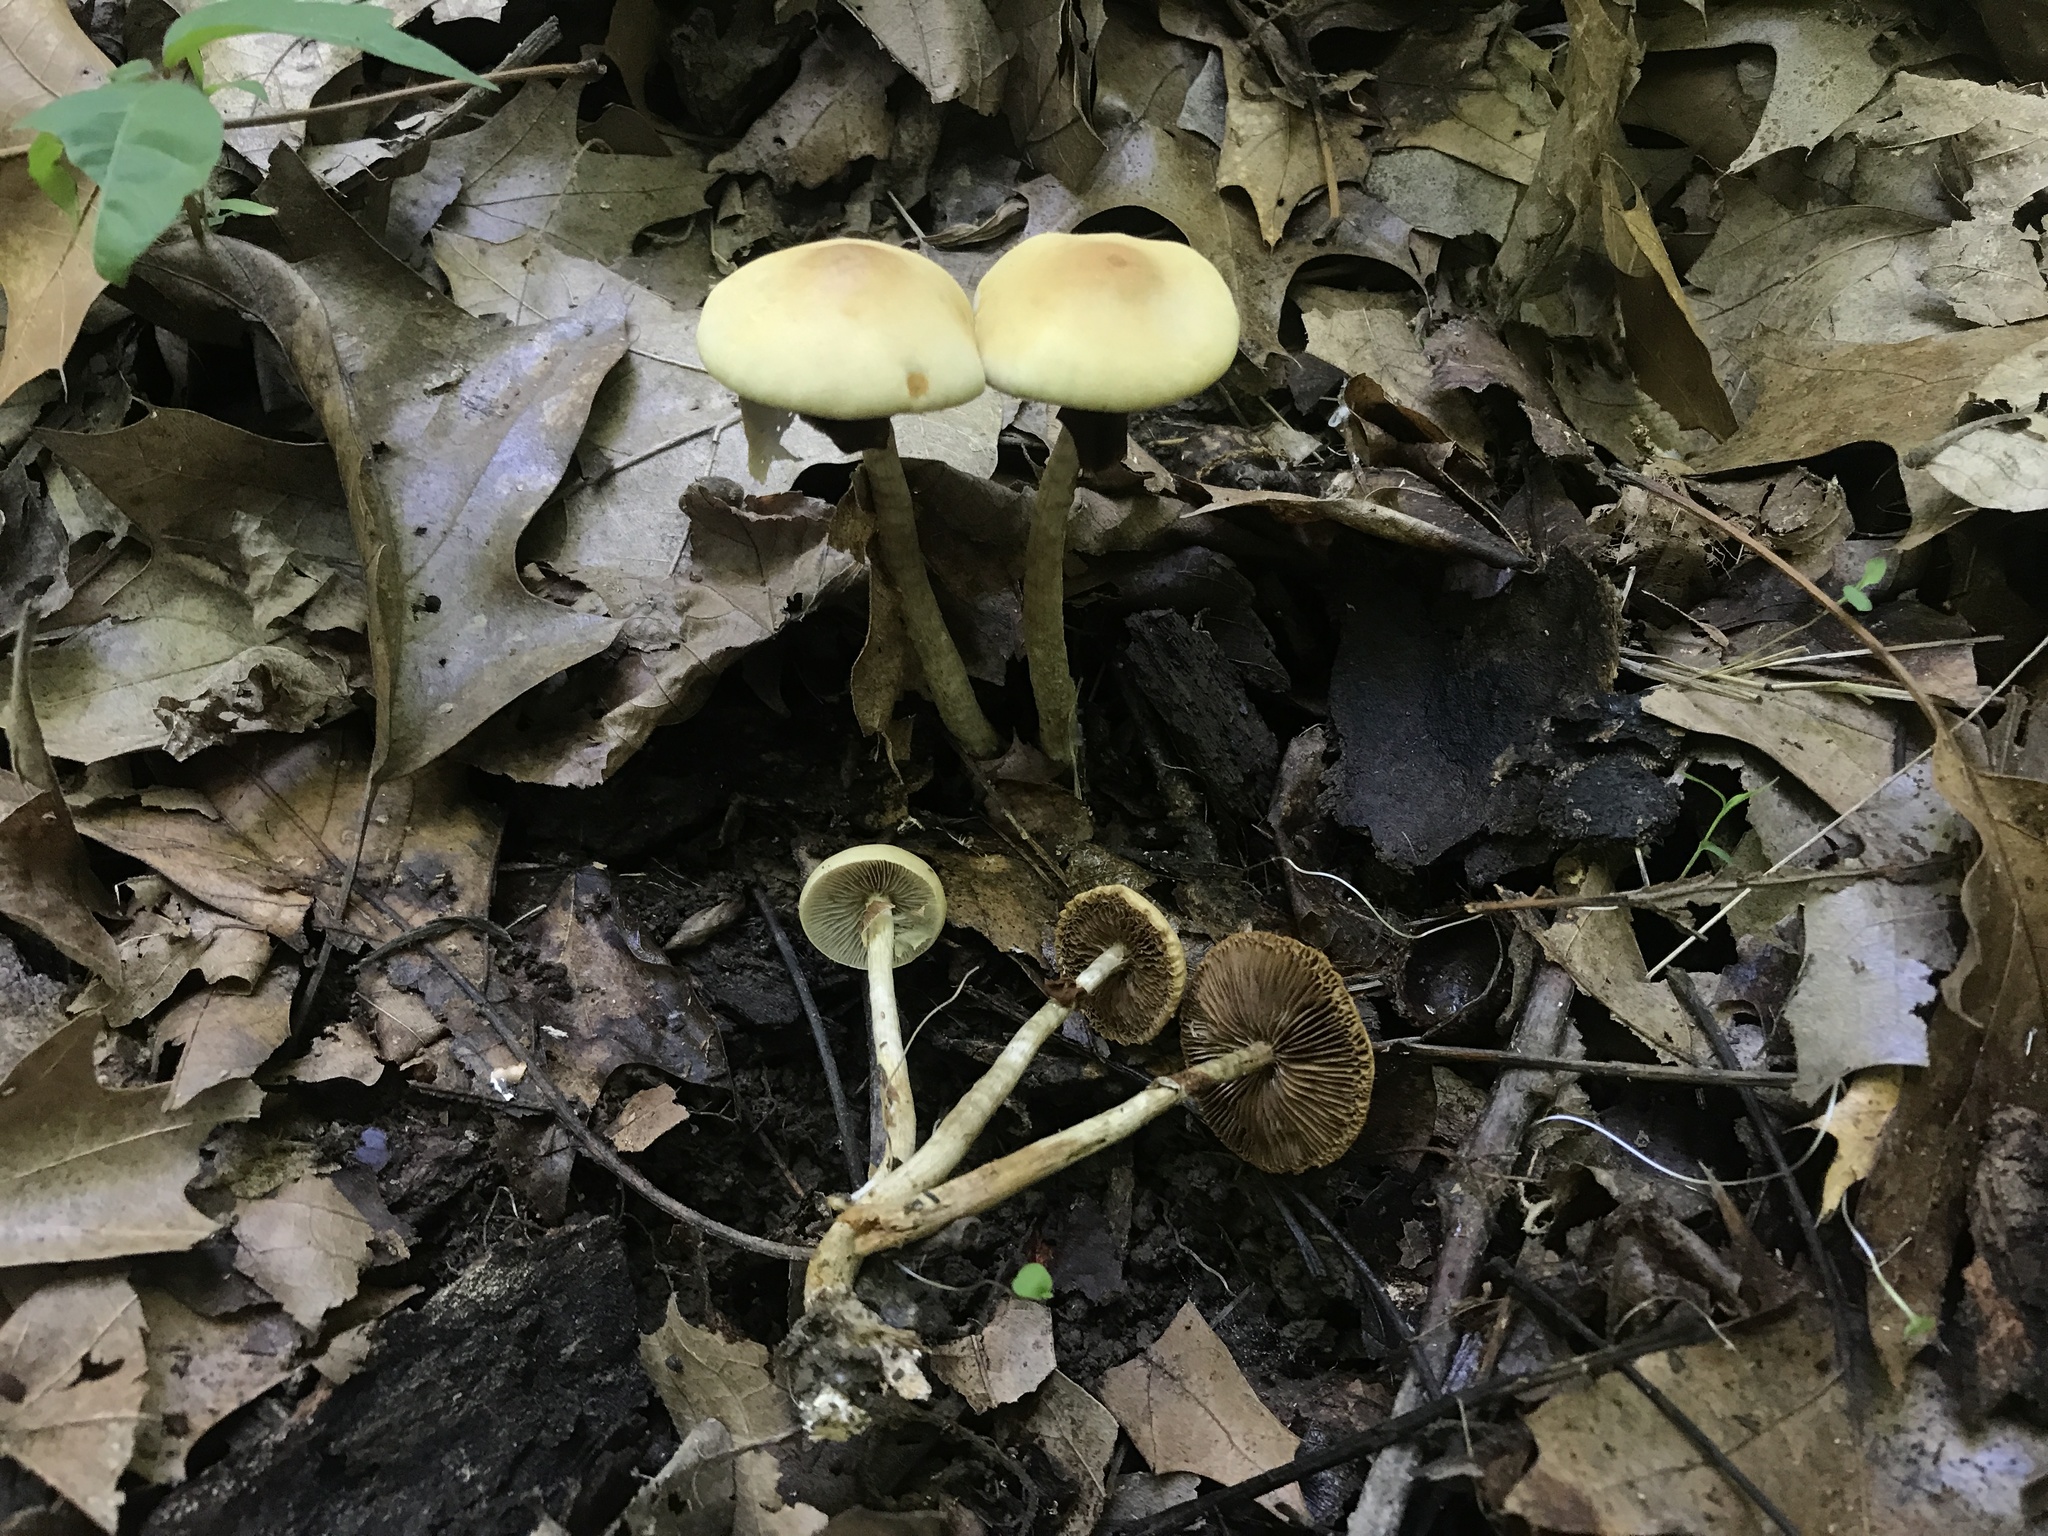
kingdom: Fungi
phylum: Basidiomycota
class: Agaricomycetes
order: Agaricales
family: Strophariaceae
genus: Agrocybe
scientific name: Agrocybe acericola
